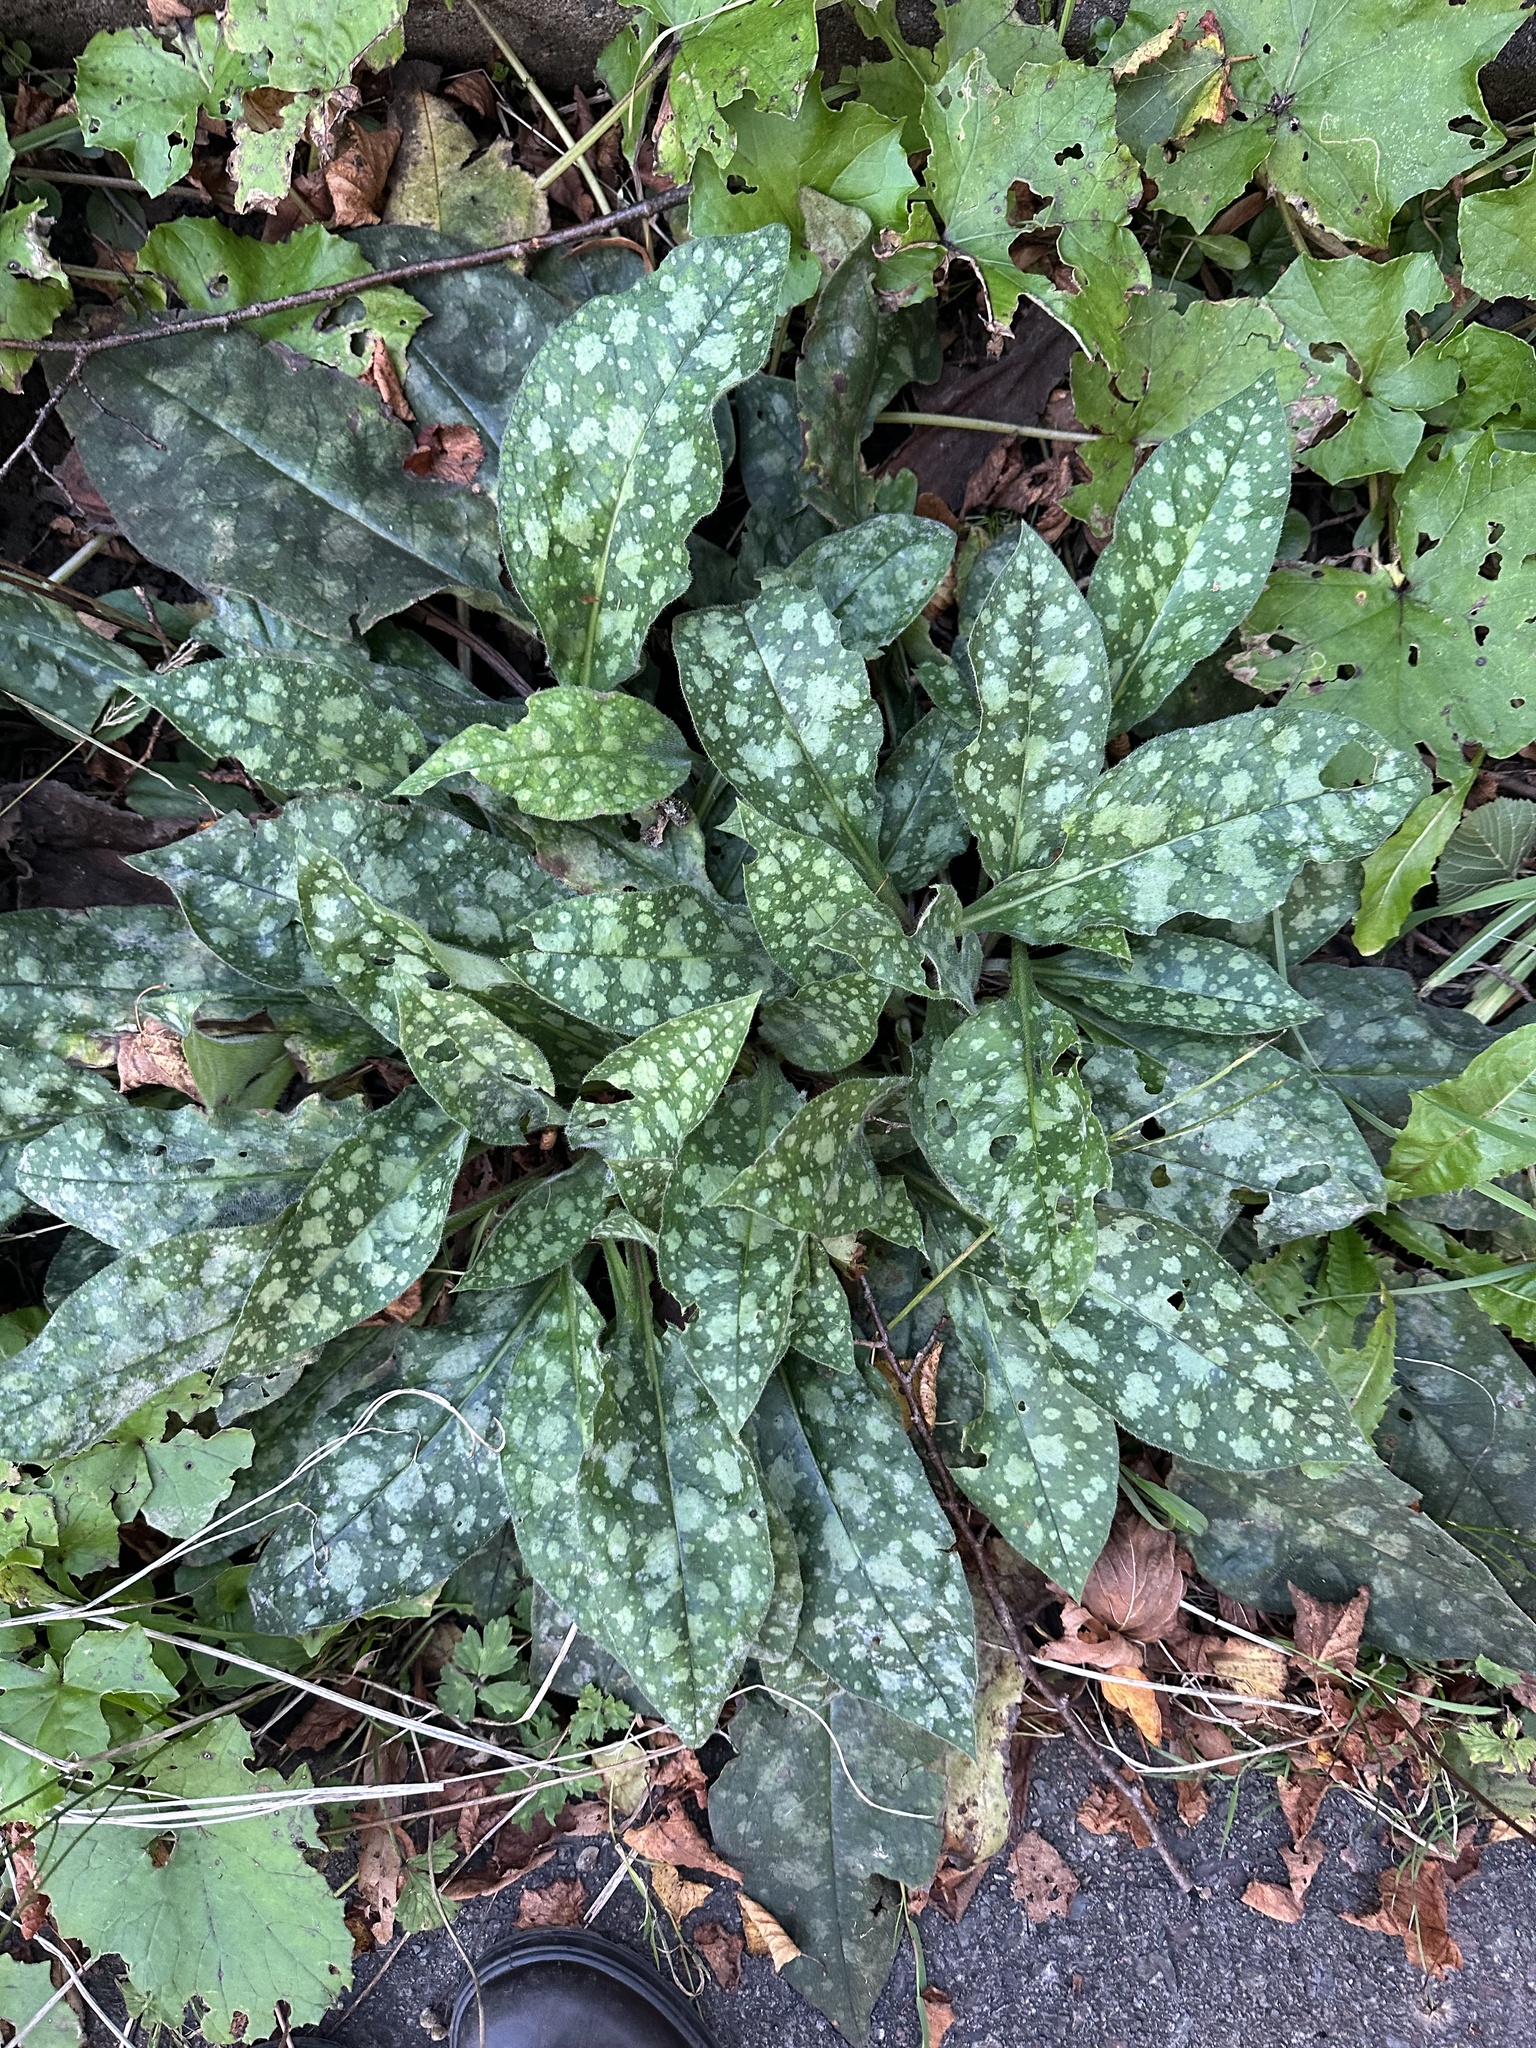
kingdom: Plantae
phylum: Tracheophyta
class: Magnoliopsida
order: Boraginales
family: Boraginaceae
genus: Pulmonaria
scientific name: Pulmonaria officinalis
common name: Lungwort
